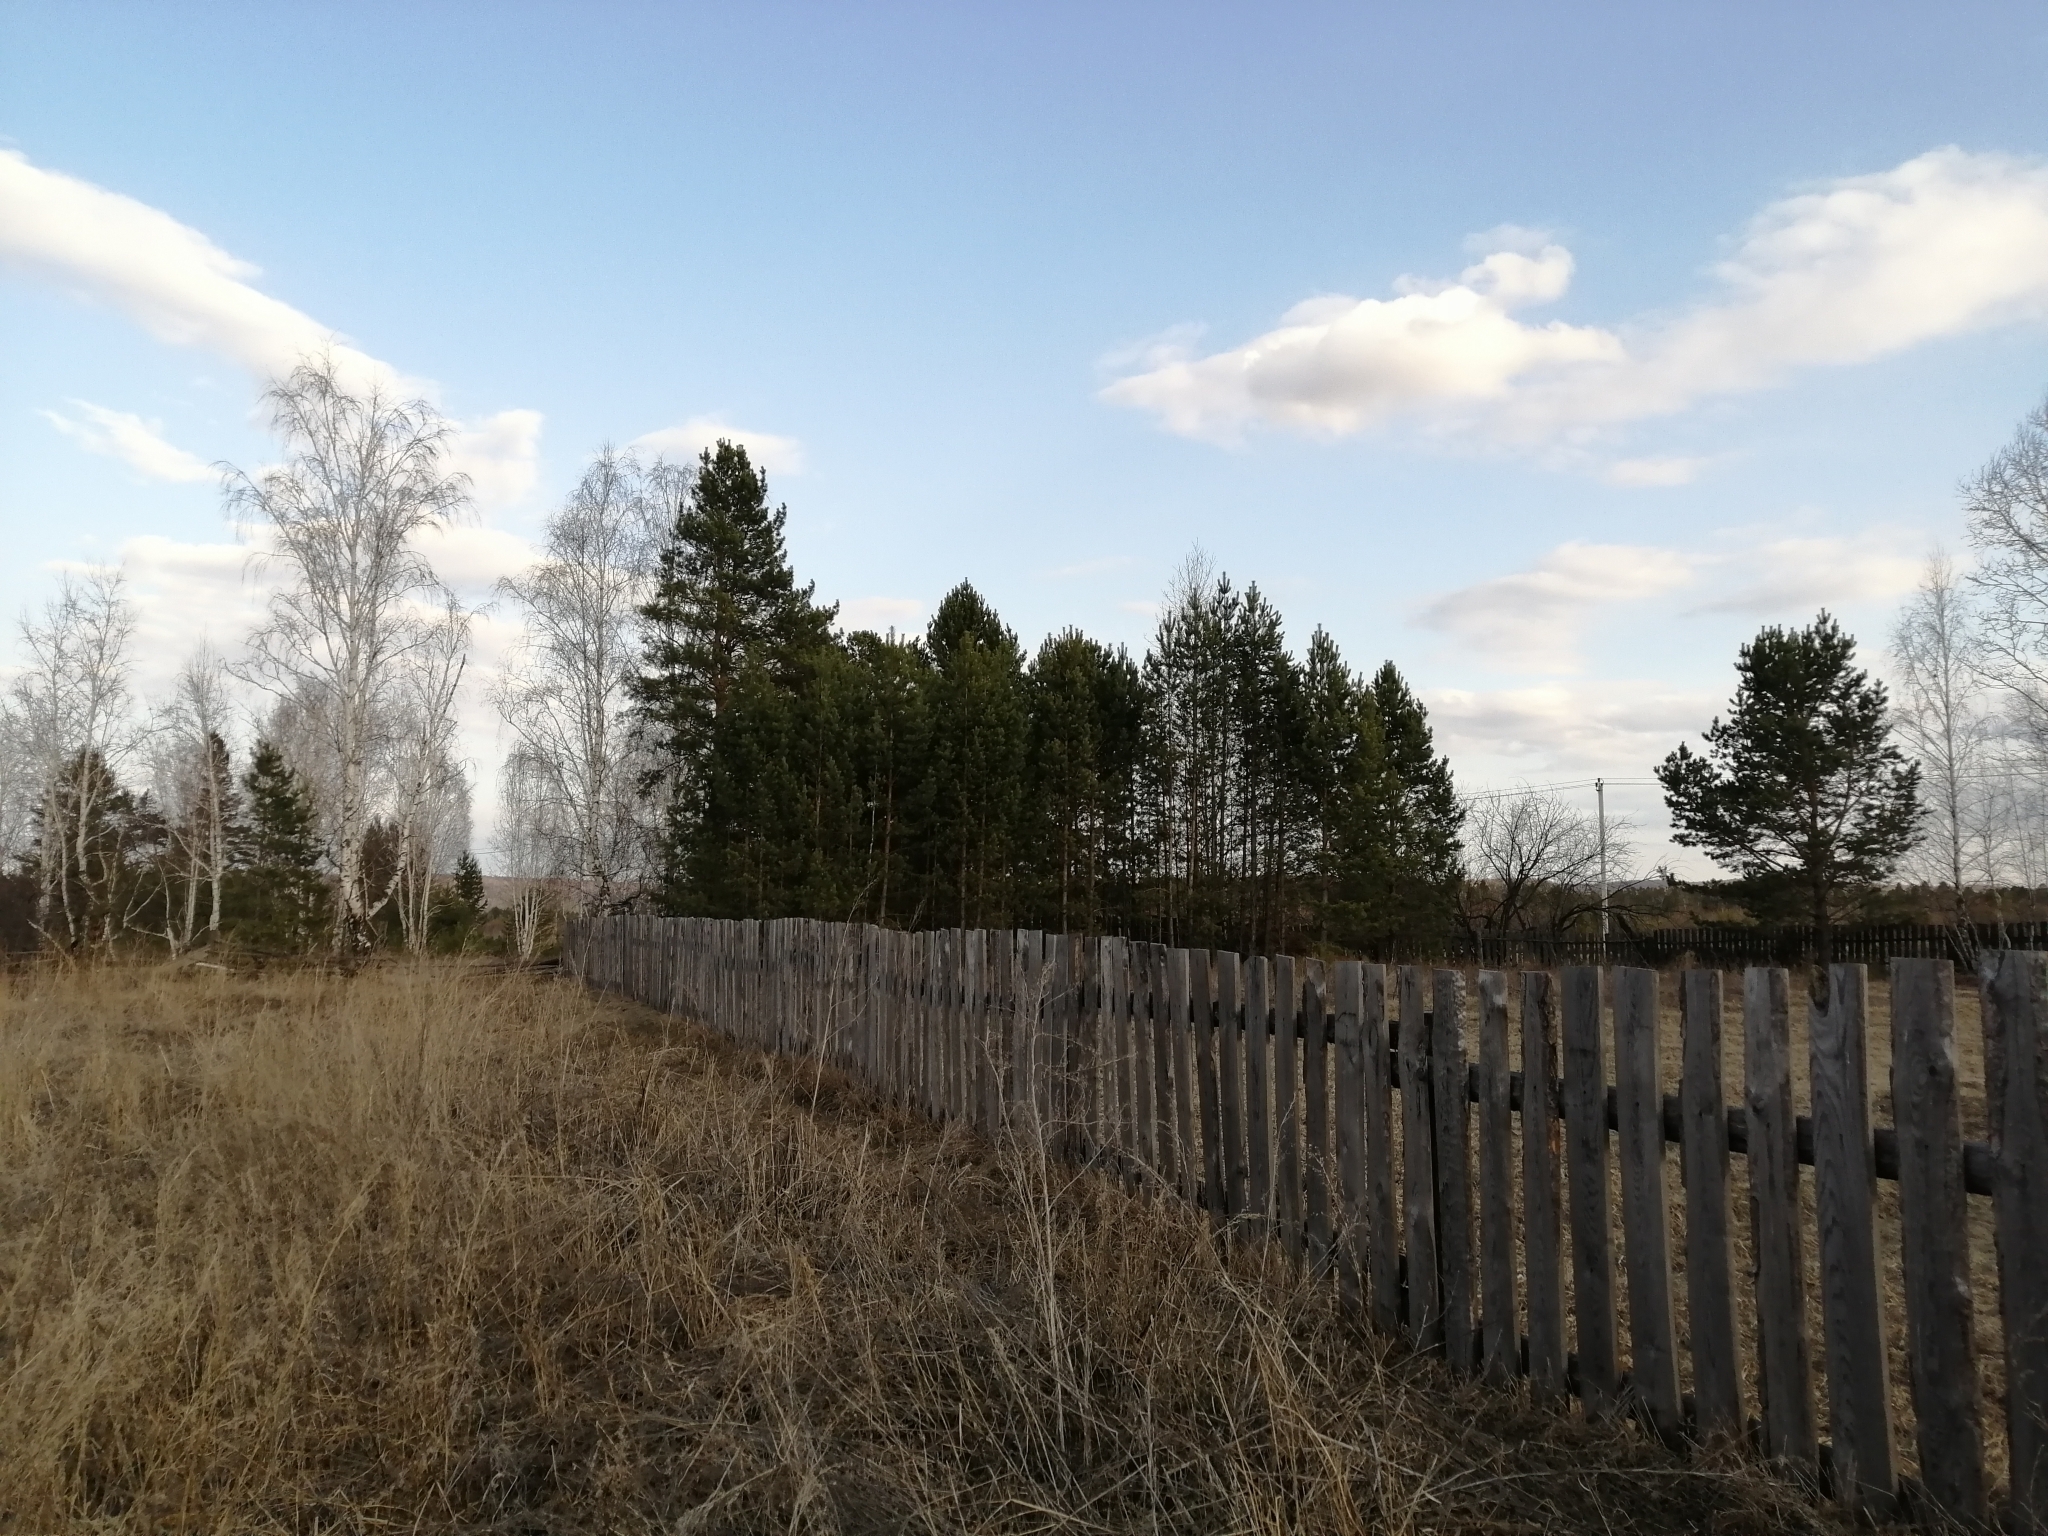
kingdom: Plantae
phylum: Tracheophyta
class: Pinopsida
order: Pinales
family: Pinaceae
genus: Pinus
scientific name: Pinus sylvestris
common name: Scots pine
